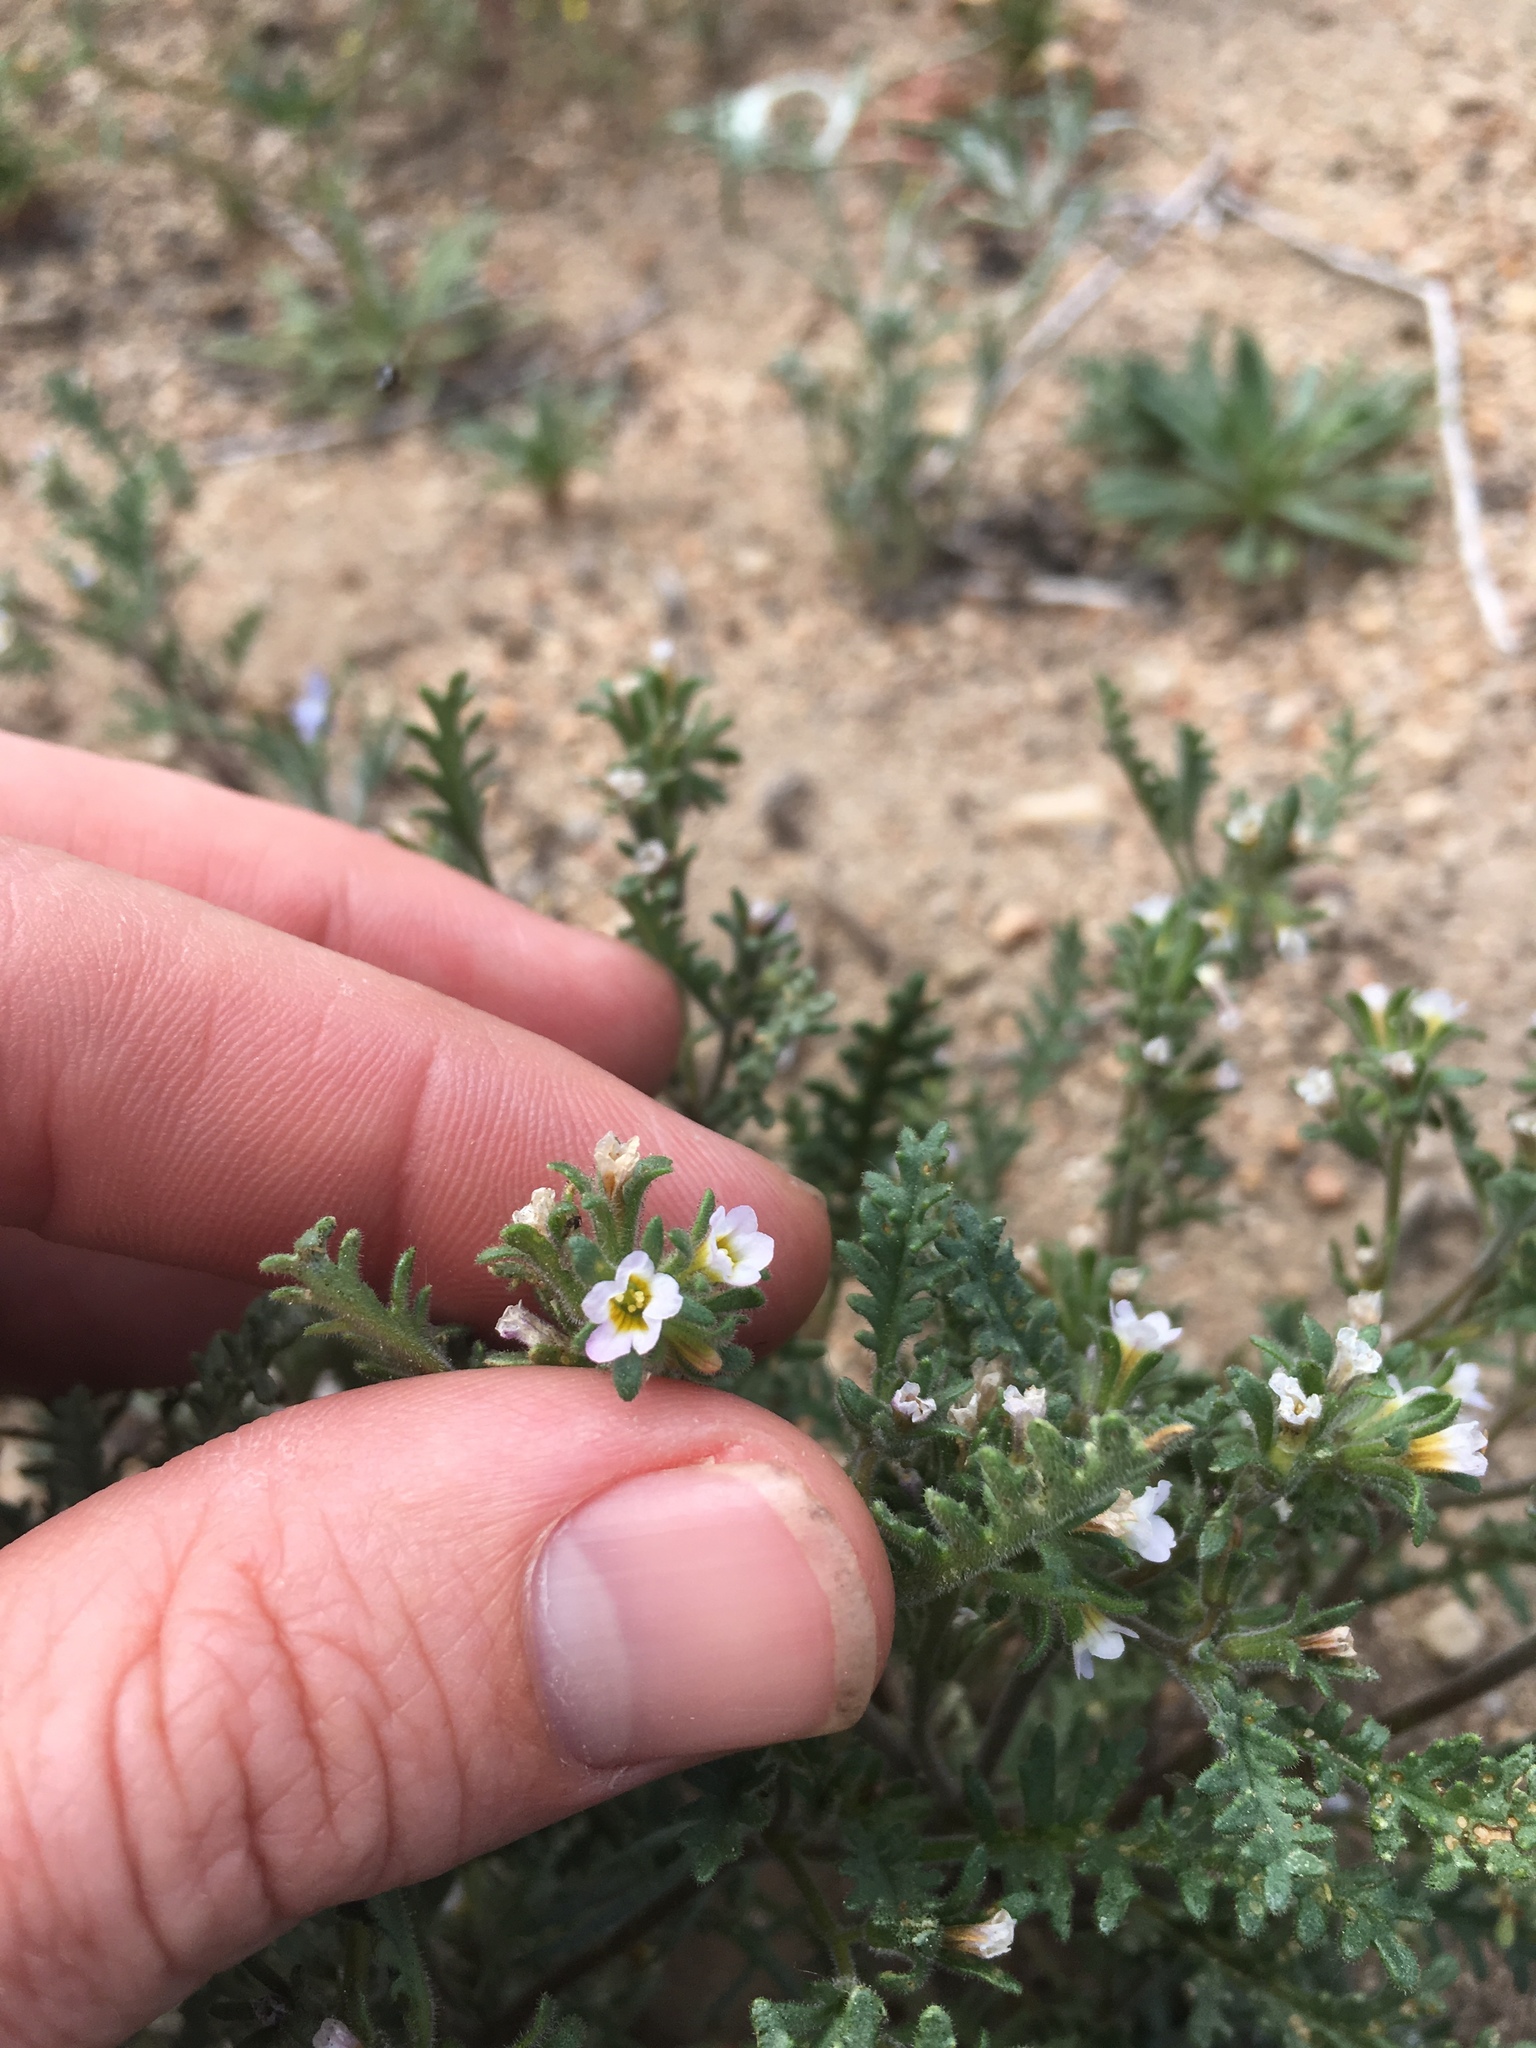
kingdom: Plantae
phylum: Tracheophyta
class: Magnoliopsida
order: Boraginales
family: Hydrophyllaceae
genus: Phacelia
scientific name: Phacelia glandulifera
